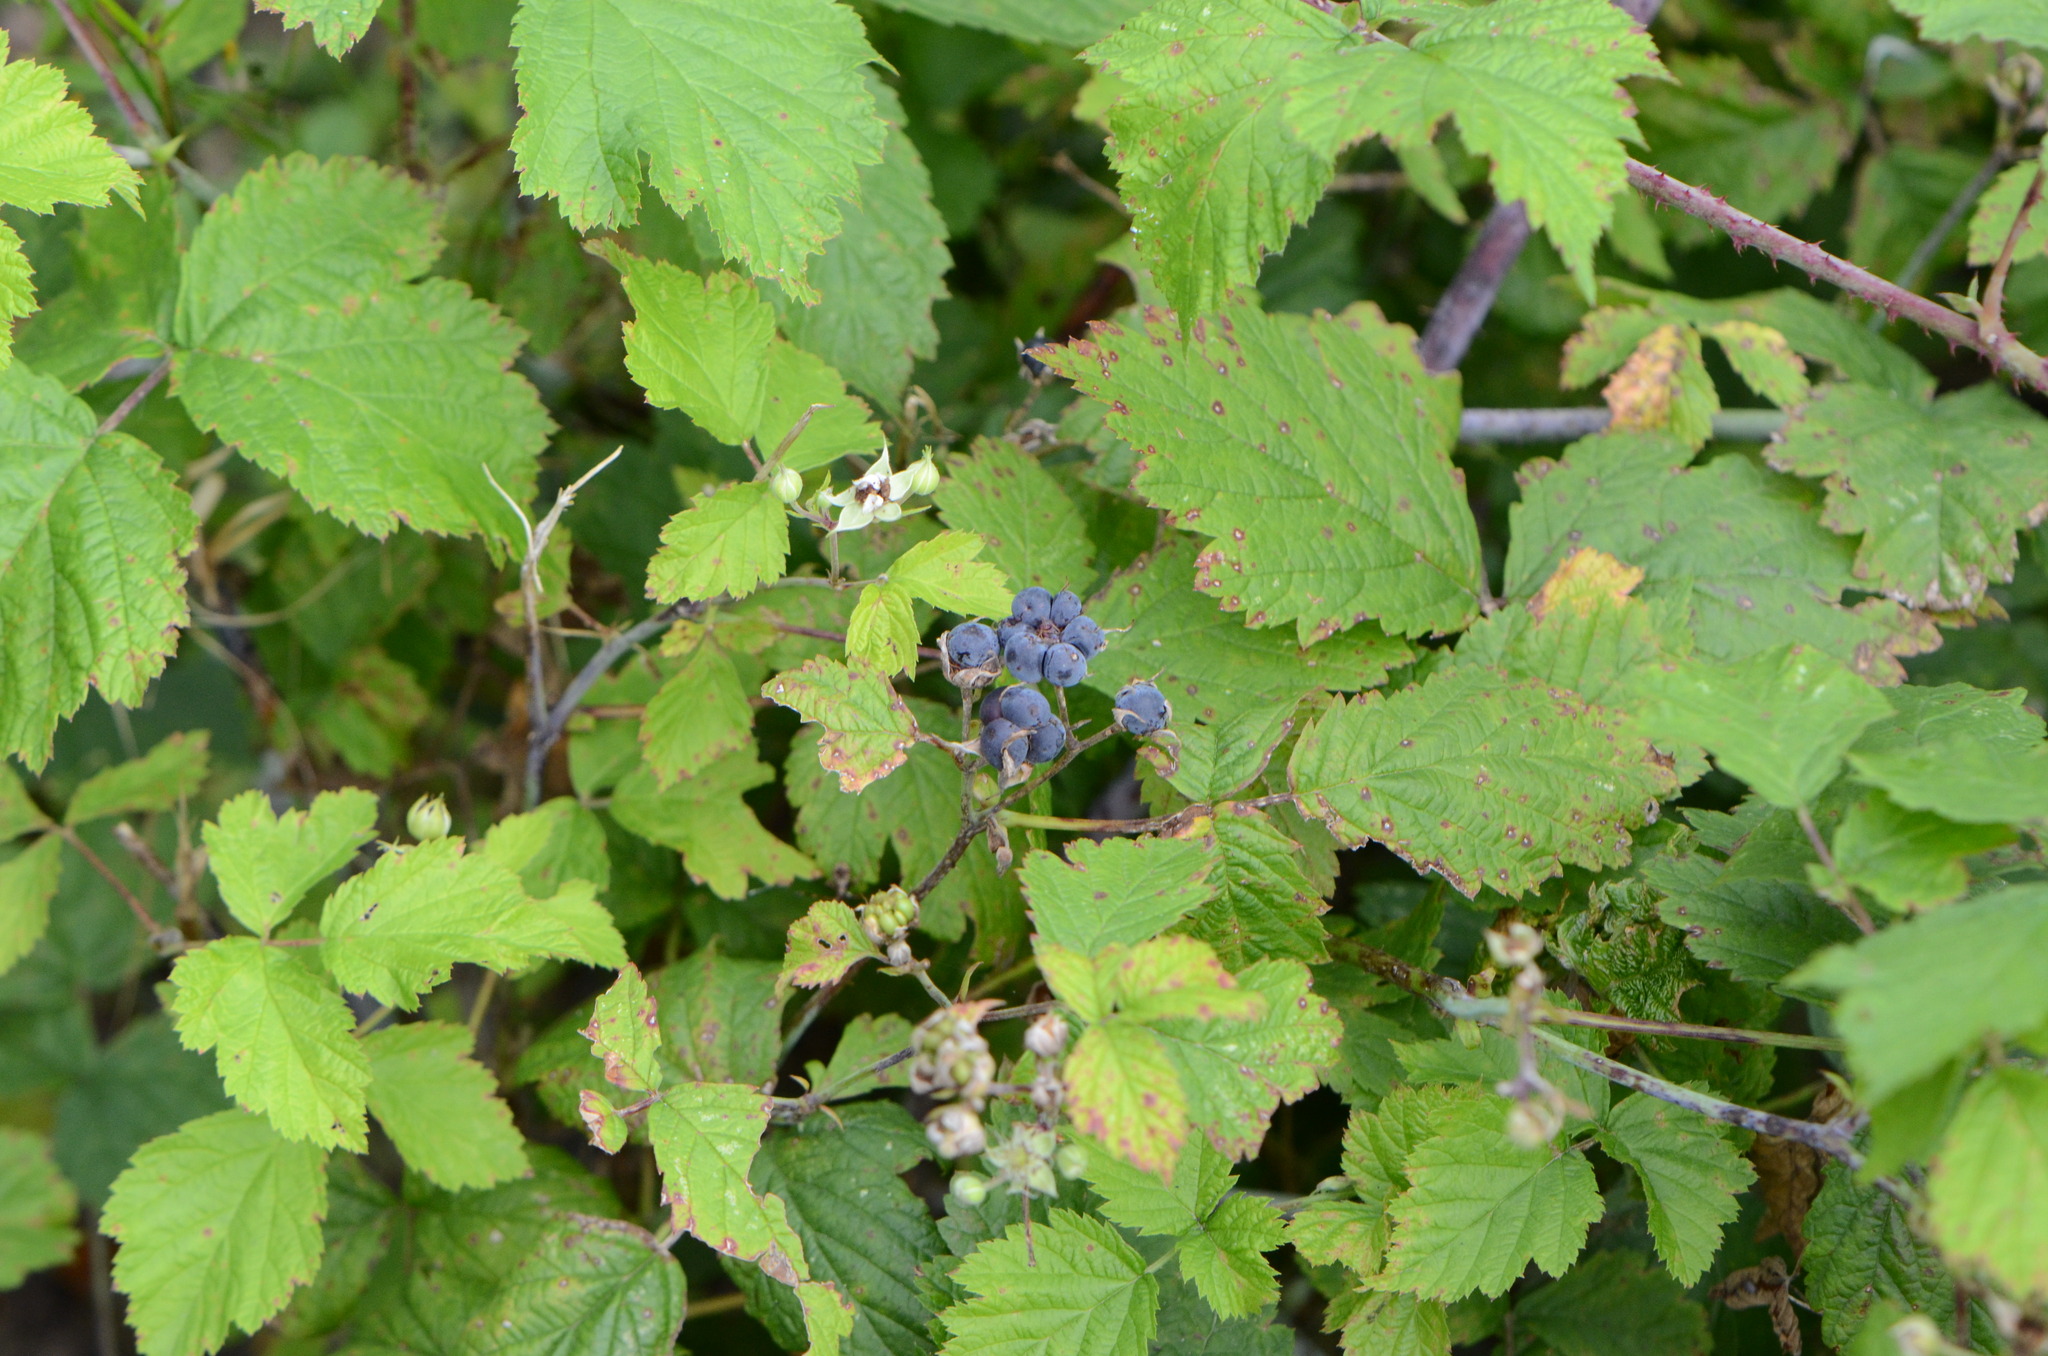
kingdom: Plantae
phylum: Tracheophyta
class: Magnoliopsida
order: Rosales
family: Rosaceae
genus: Rubus
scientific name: Rubus caesius
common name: Dewberry
